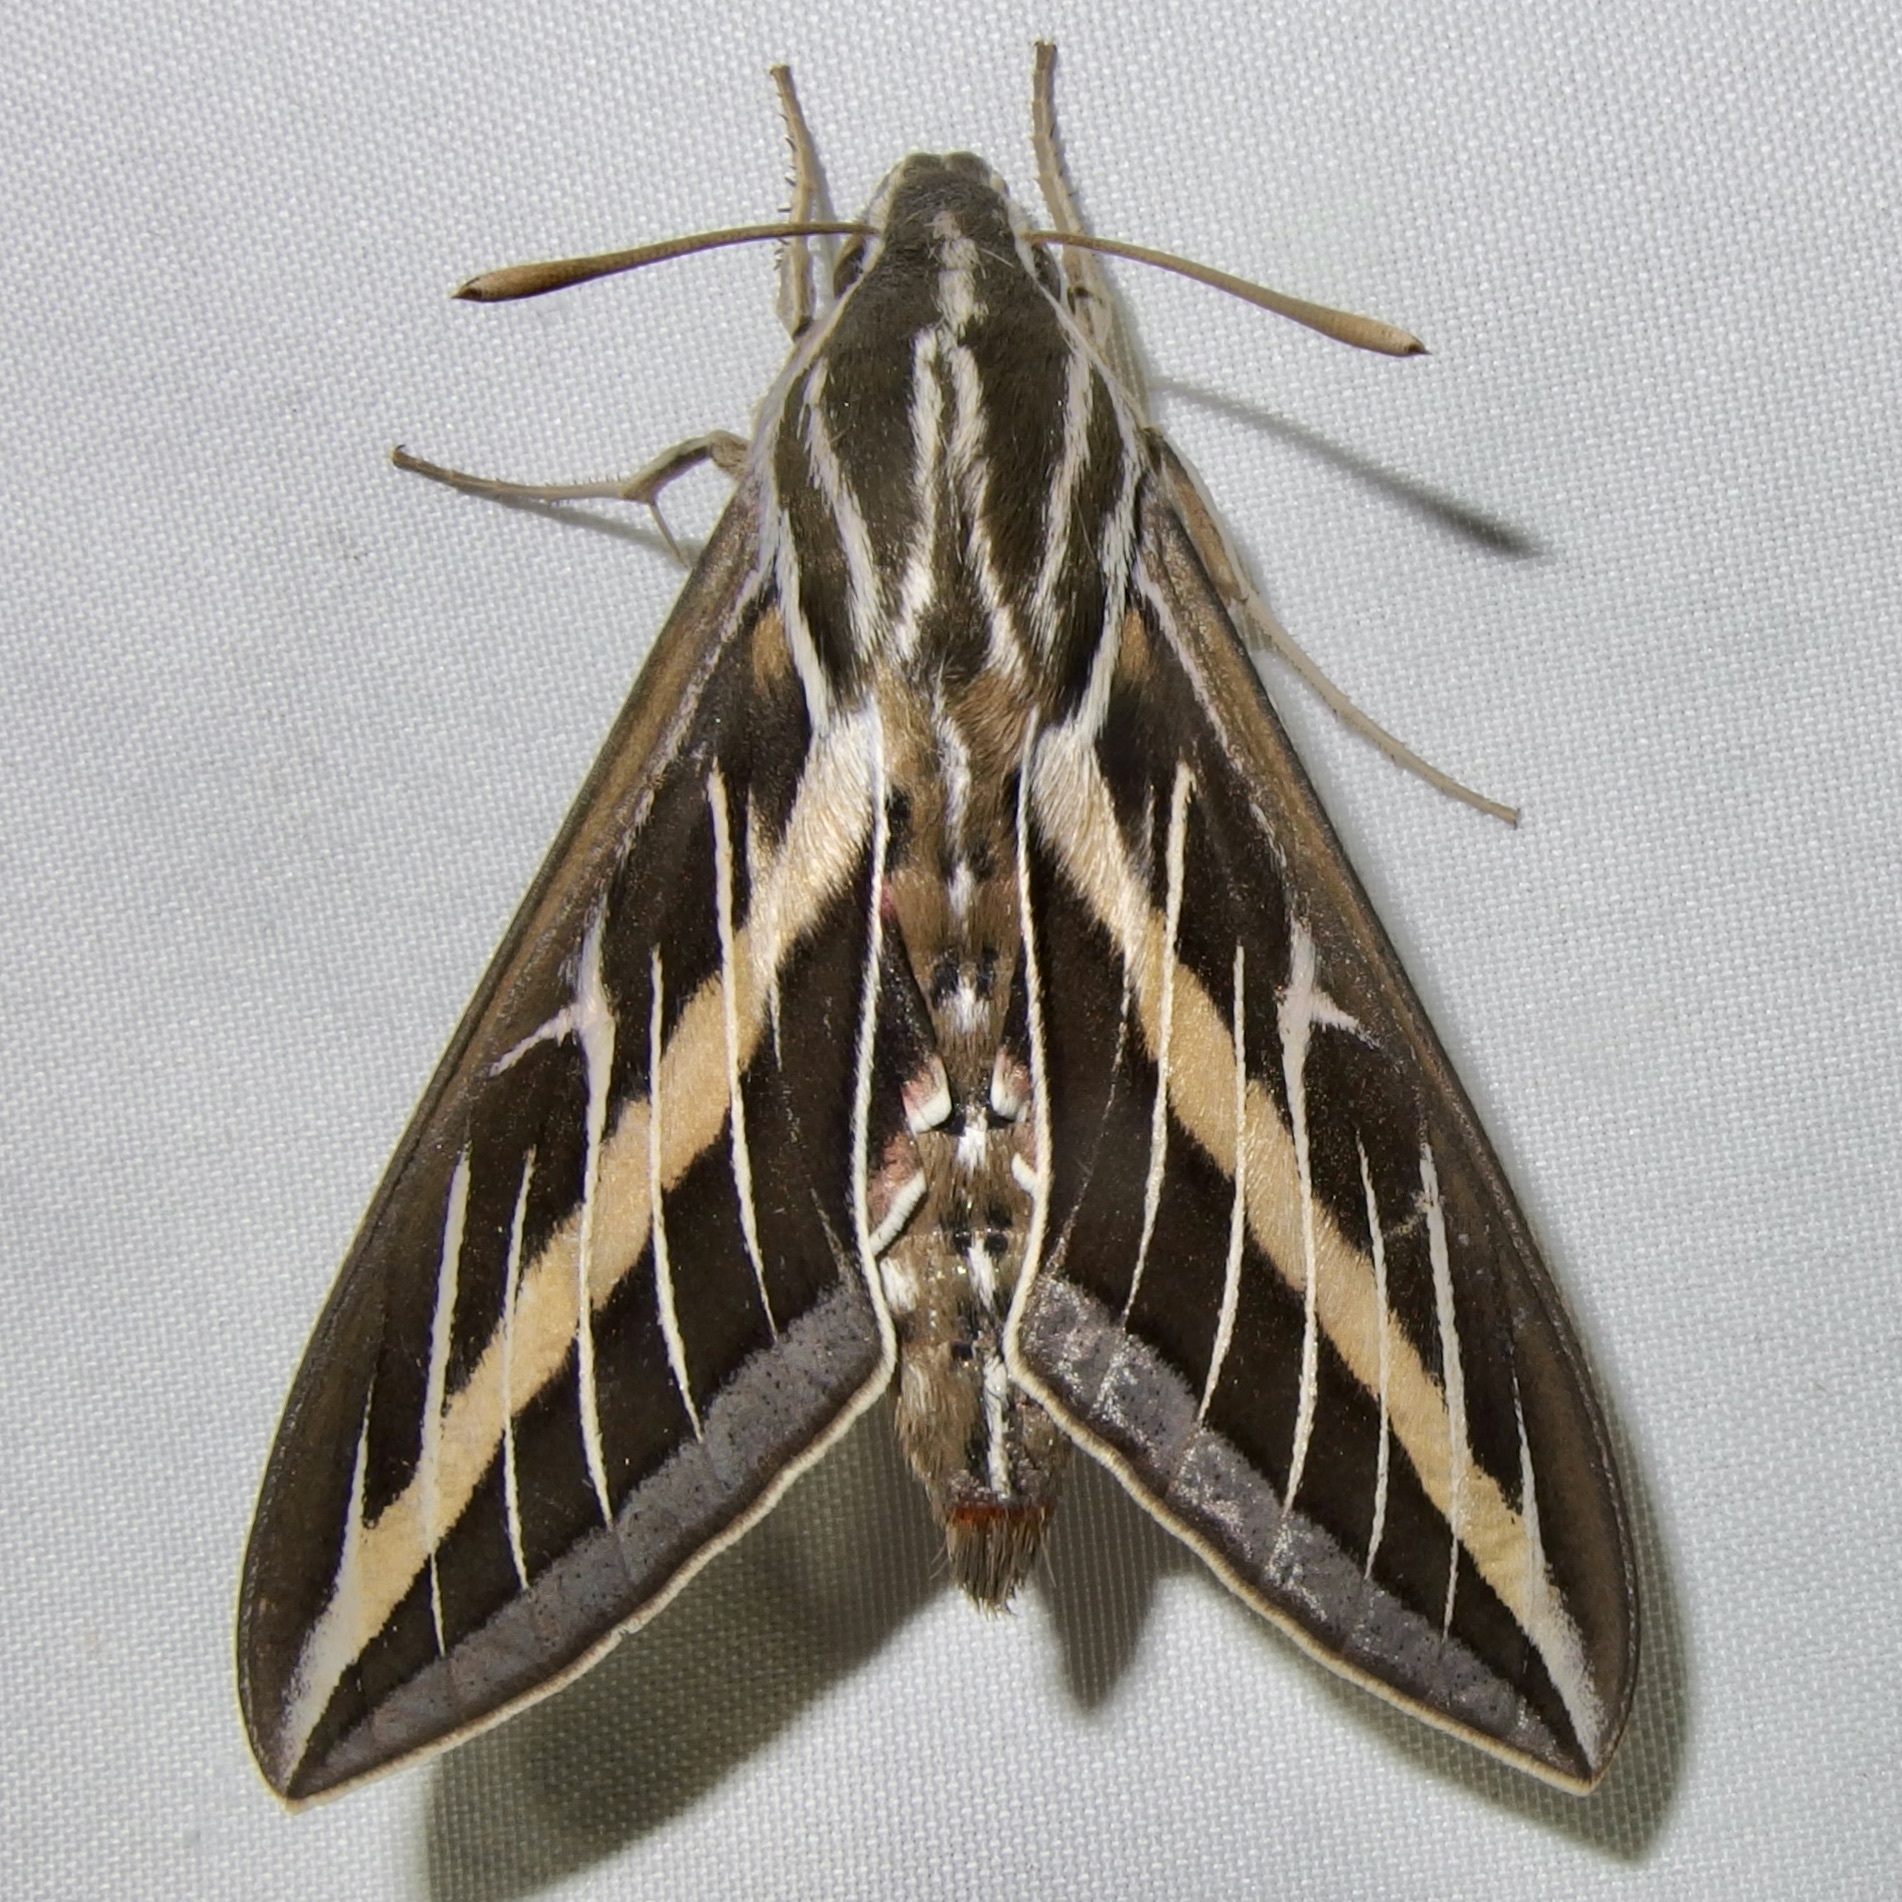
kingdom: Animalia
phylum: Arthropoda
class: Insecta
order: Lepidoptera
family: Sphingidae
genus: Hyles
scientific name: Hyles lineata
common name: White-lined sphinx
